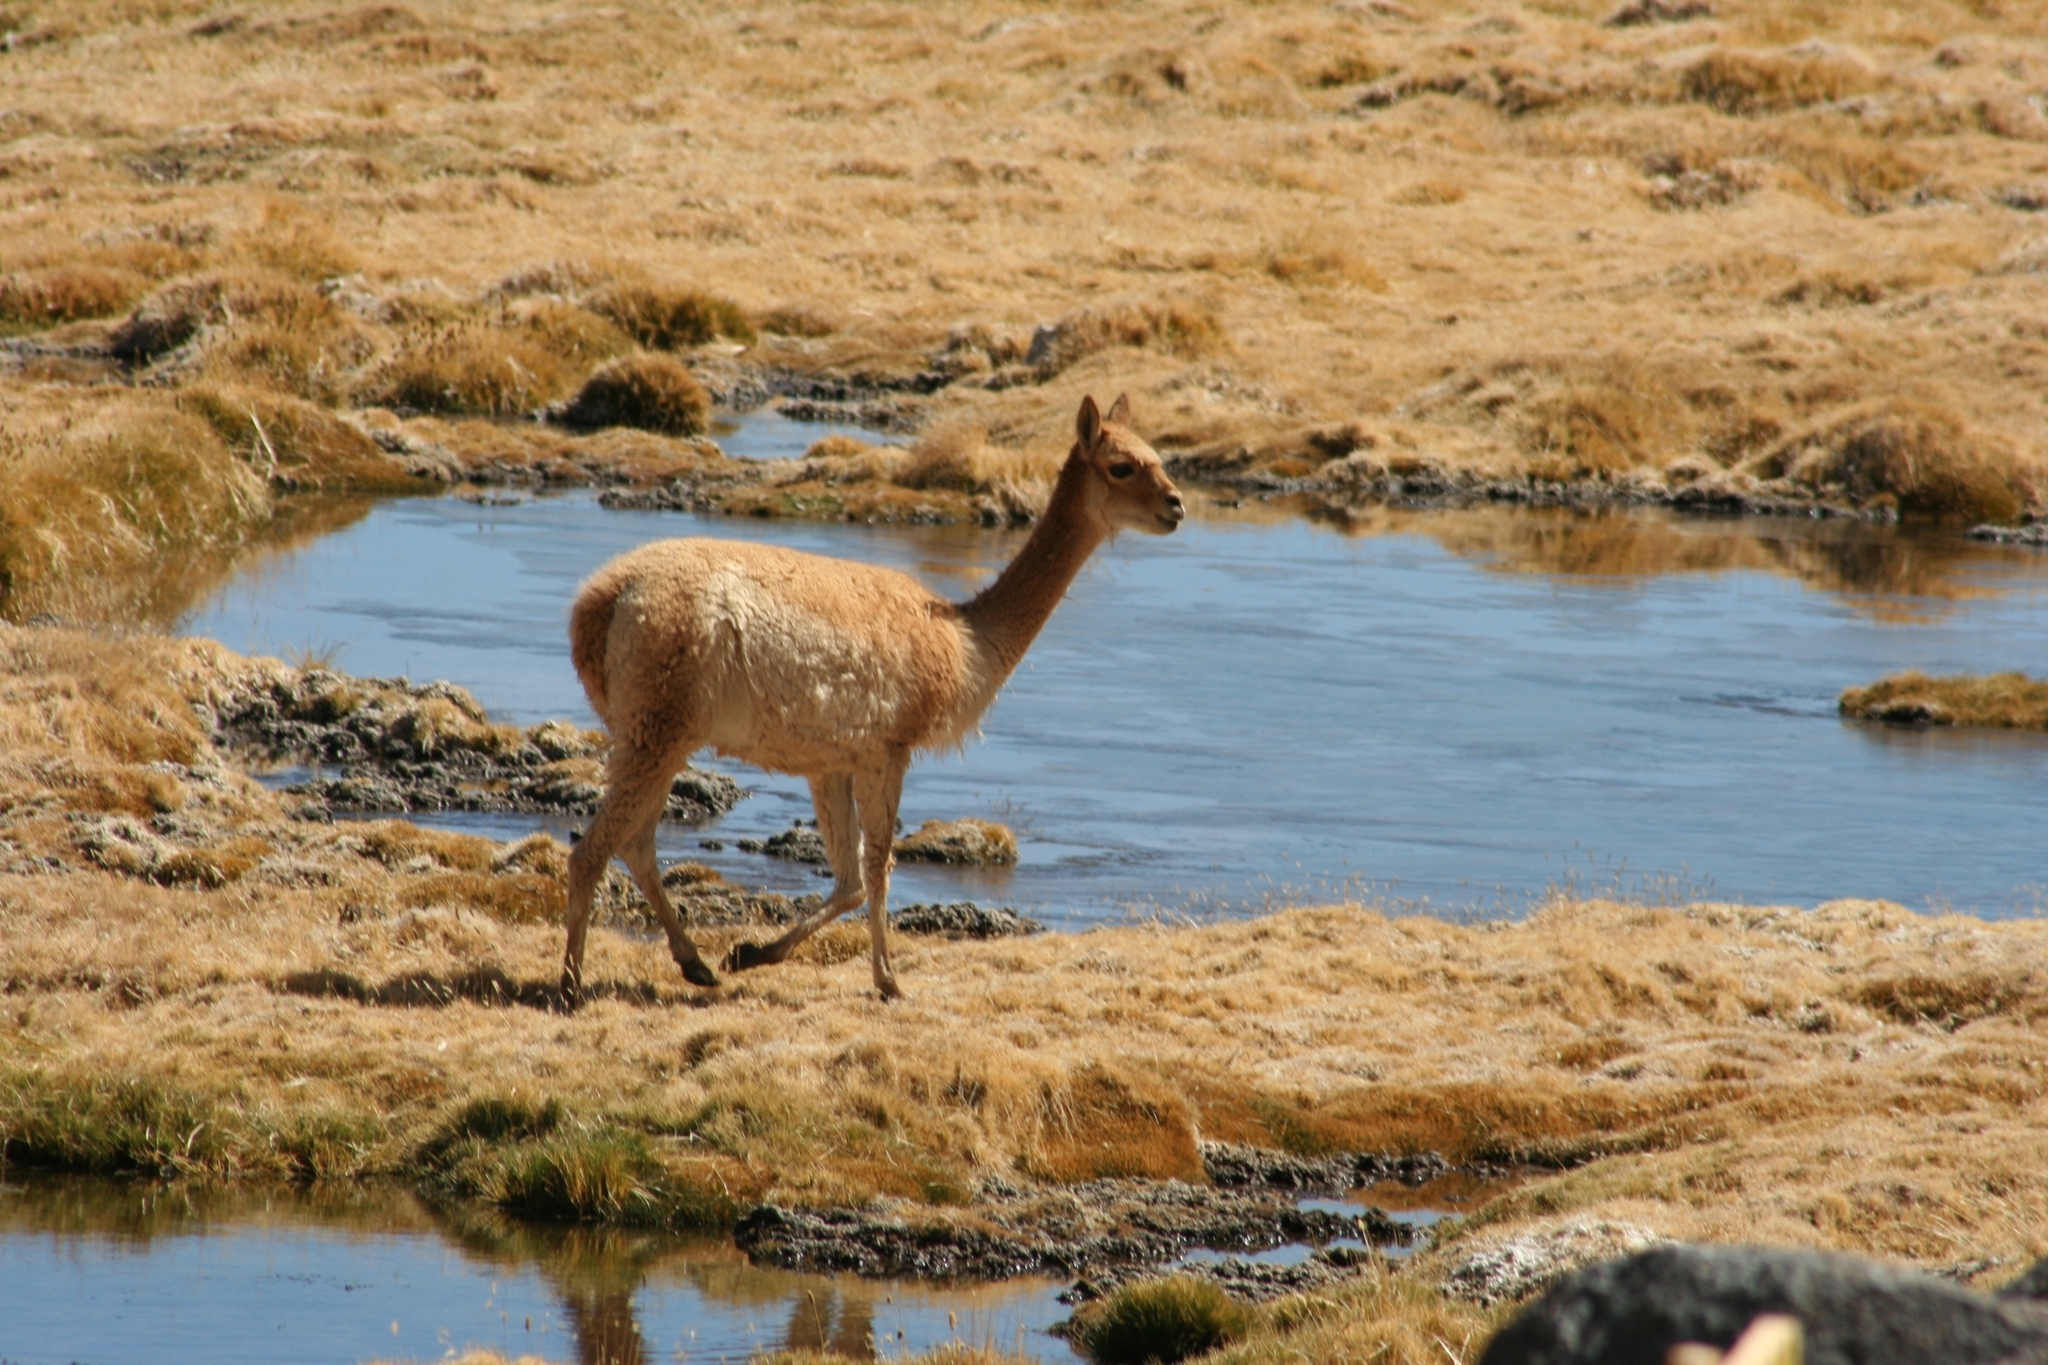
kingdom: Animalia
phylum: Chordata
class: Mammalia
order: Artiodactyla
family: Camelidae
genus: Vicugna
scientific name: Vicugna vicugna
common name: Vicugna
